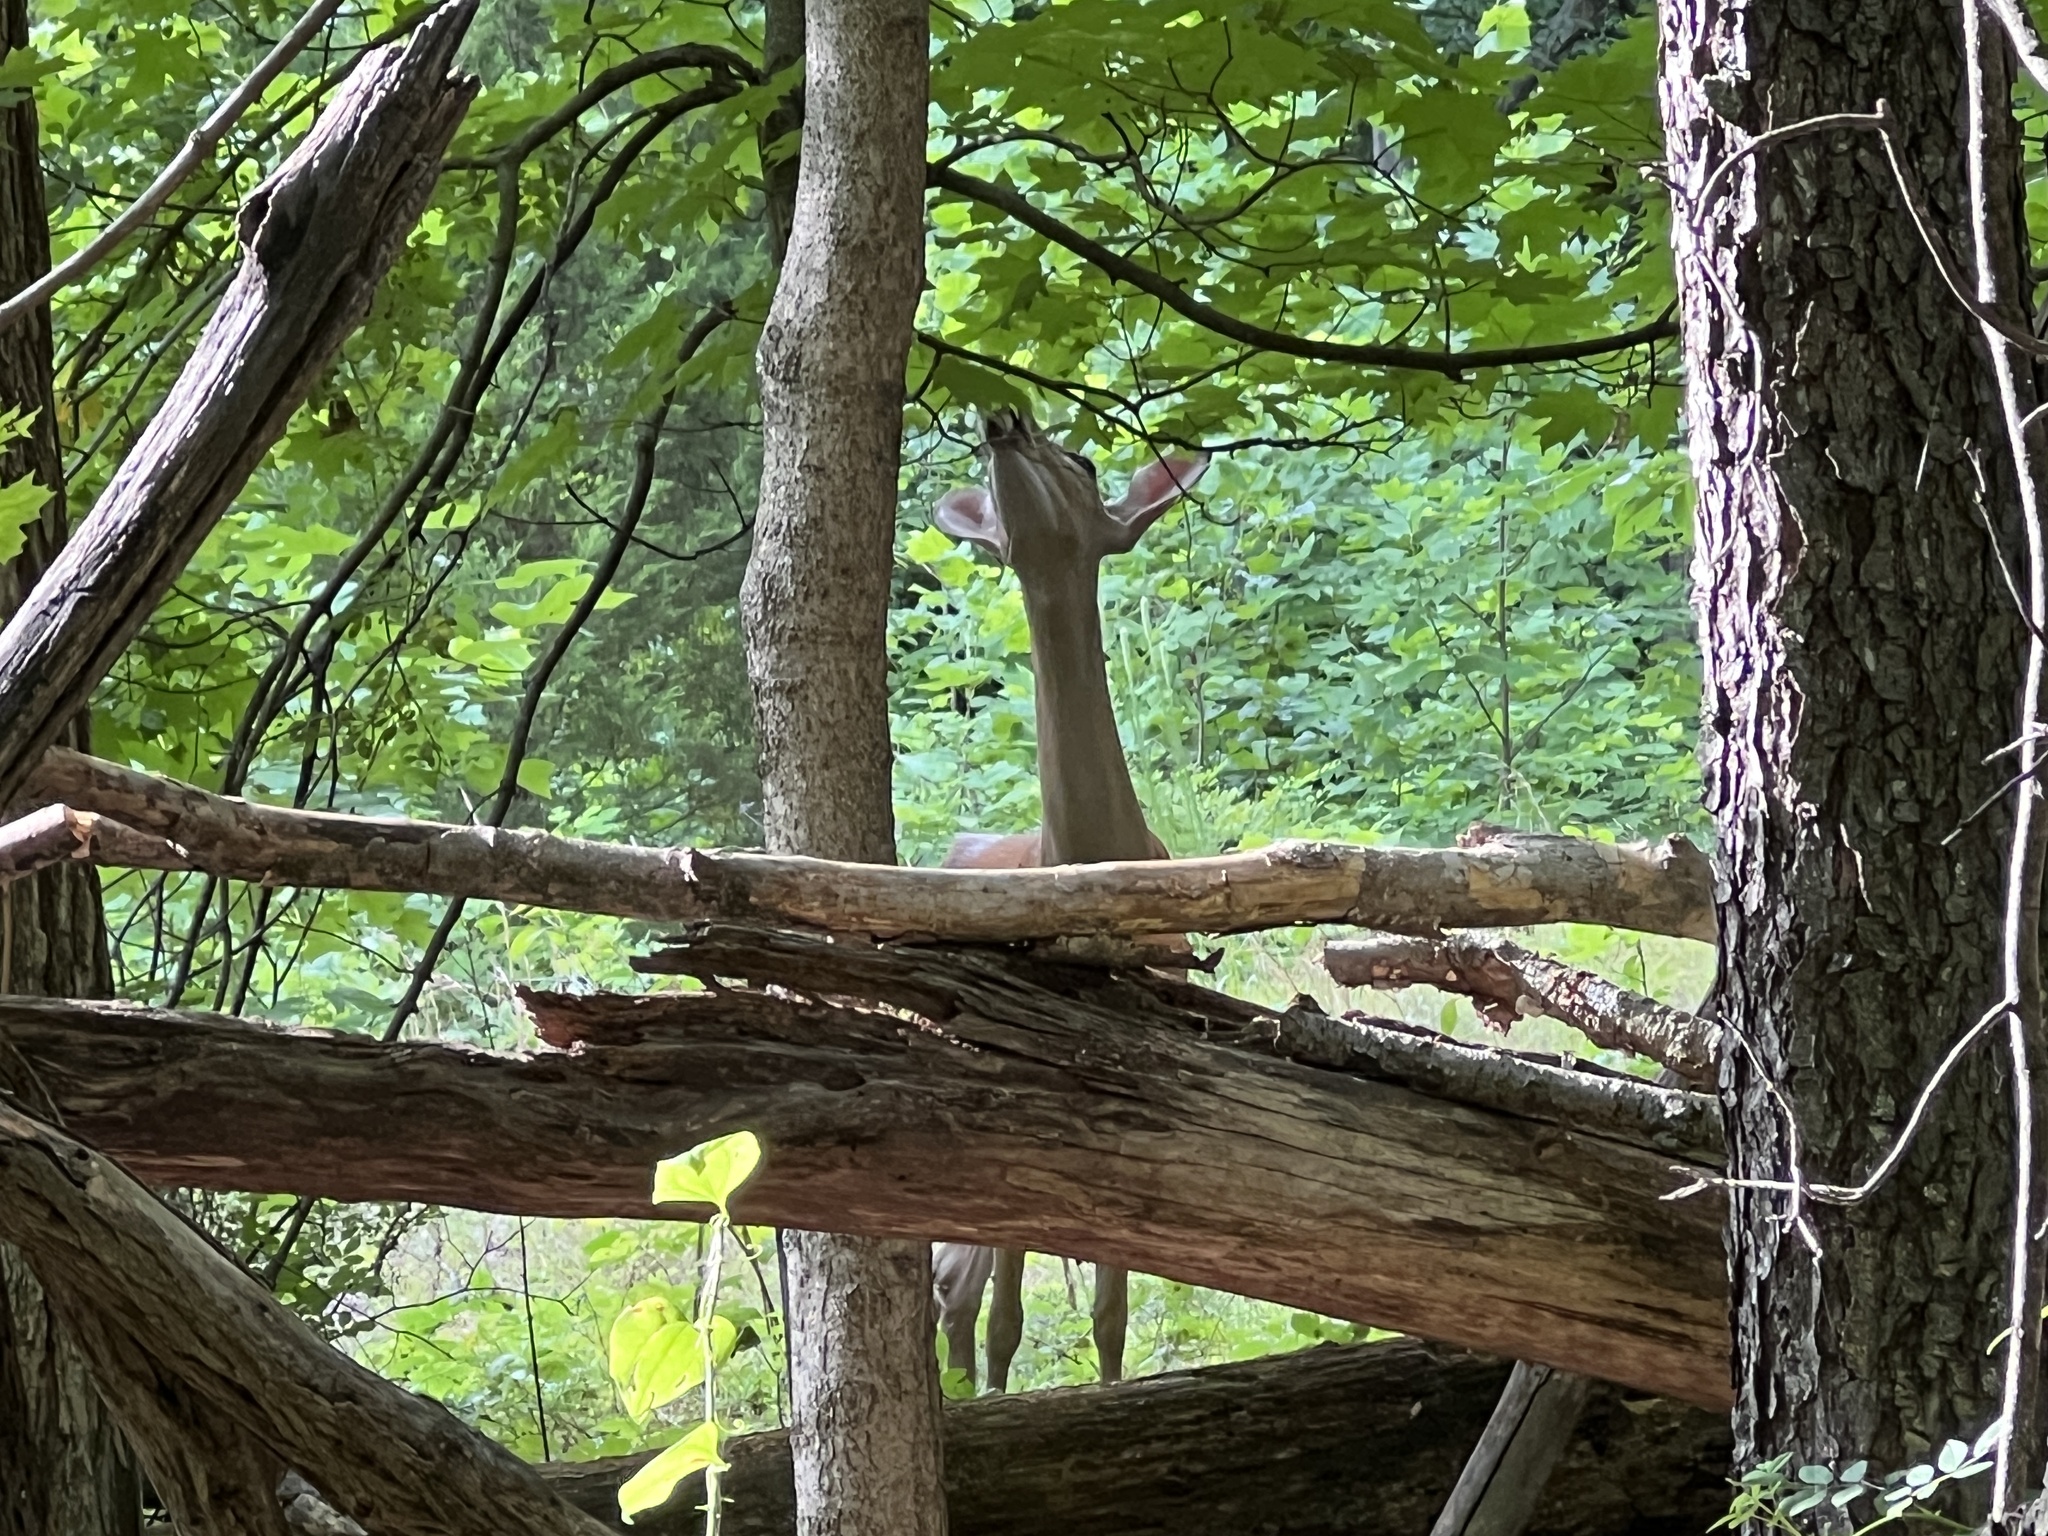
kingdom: Animalia
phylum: Chordata
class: Mammalia
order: Artiodactyla
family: Cervidae
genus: Odocoileus
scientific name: Odocoileus virginianus
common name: White-tailed deer
